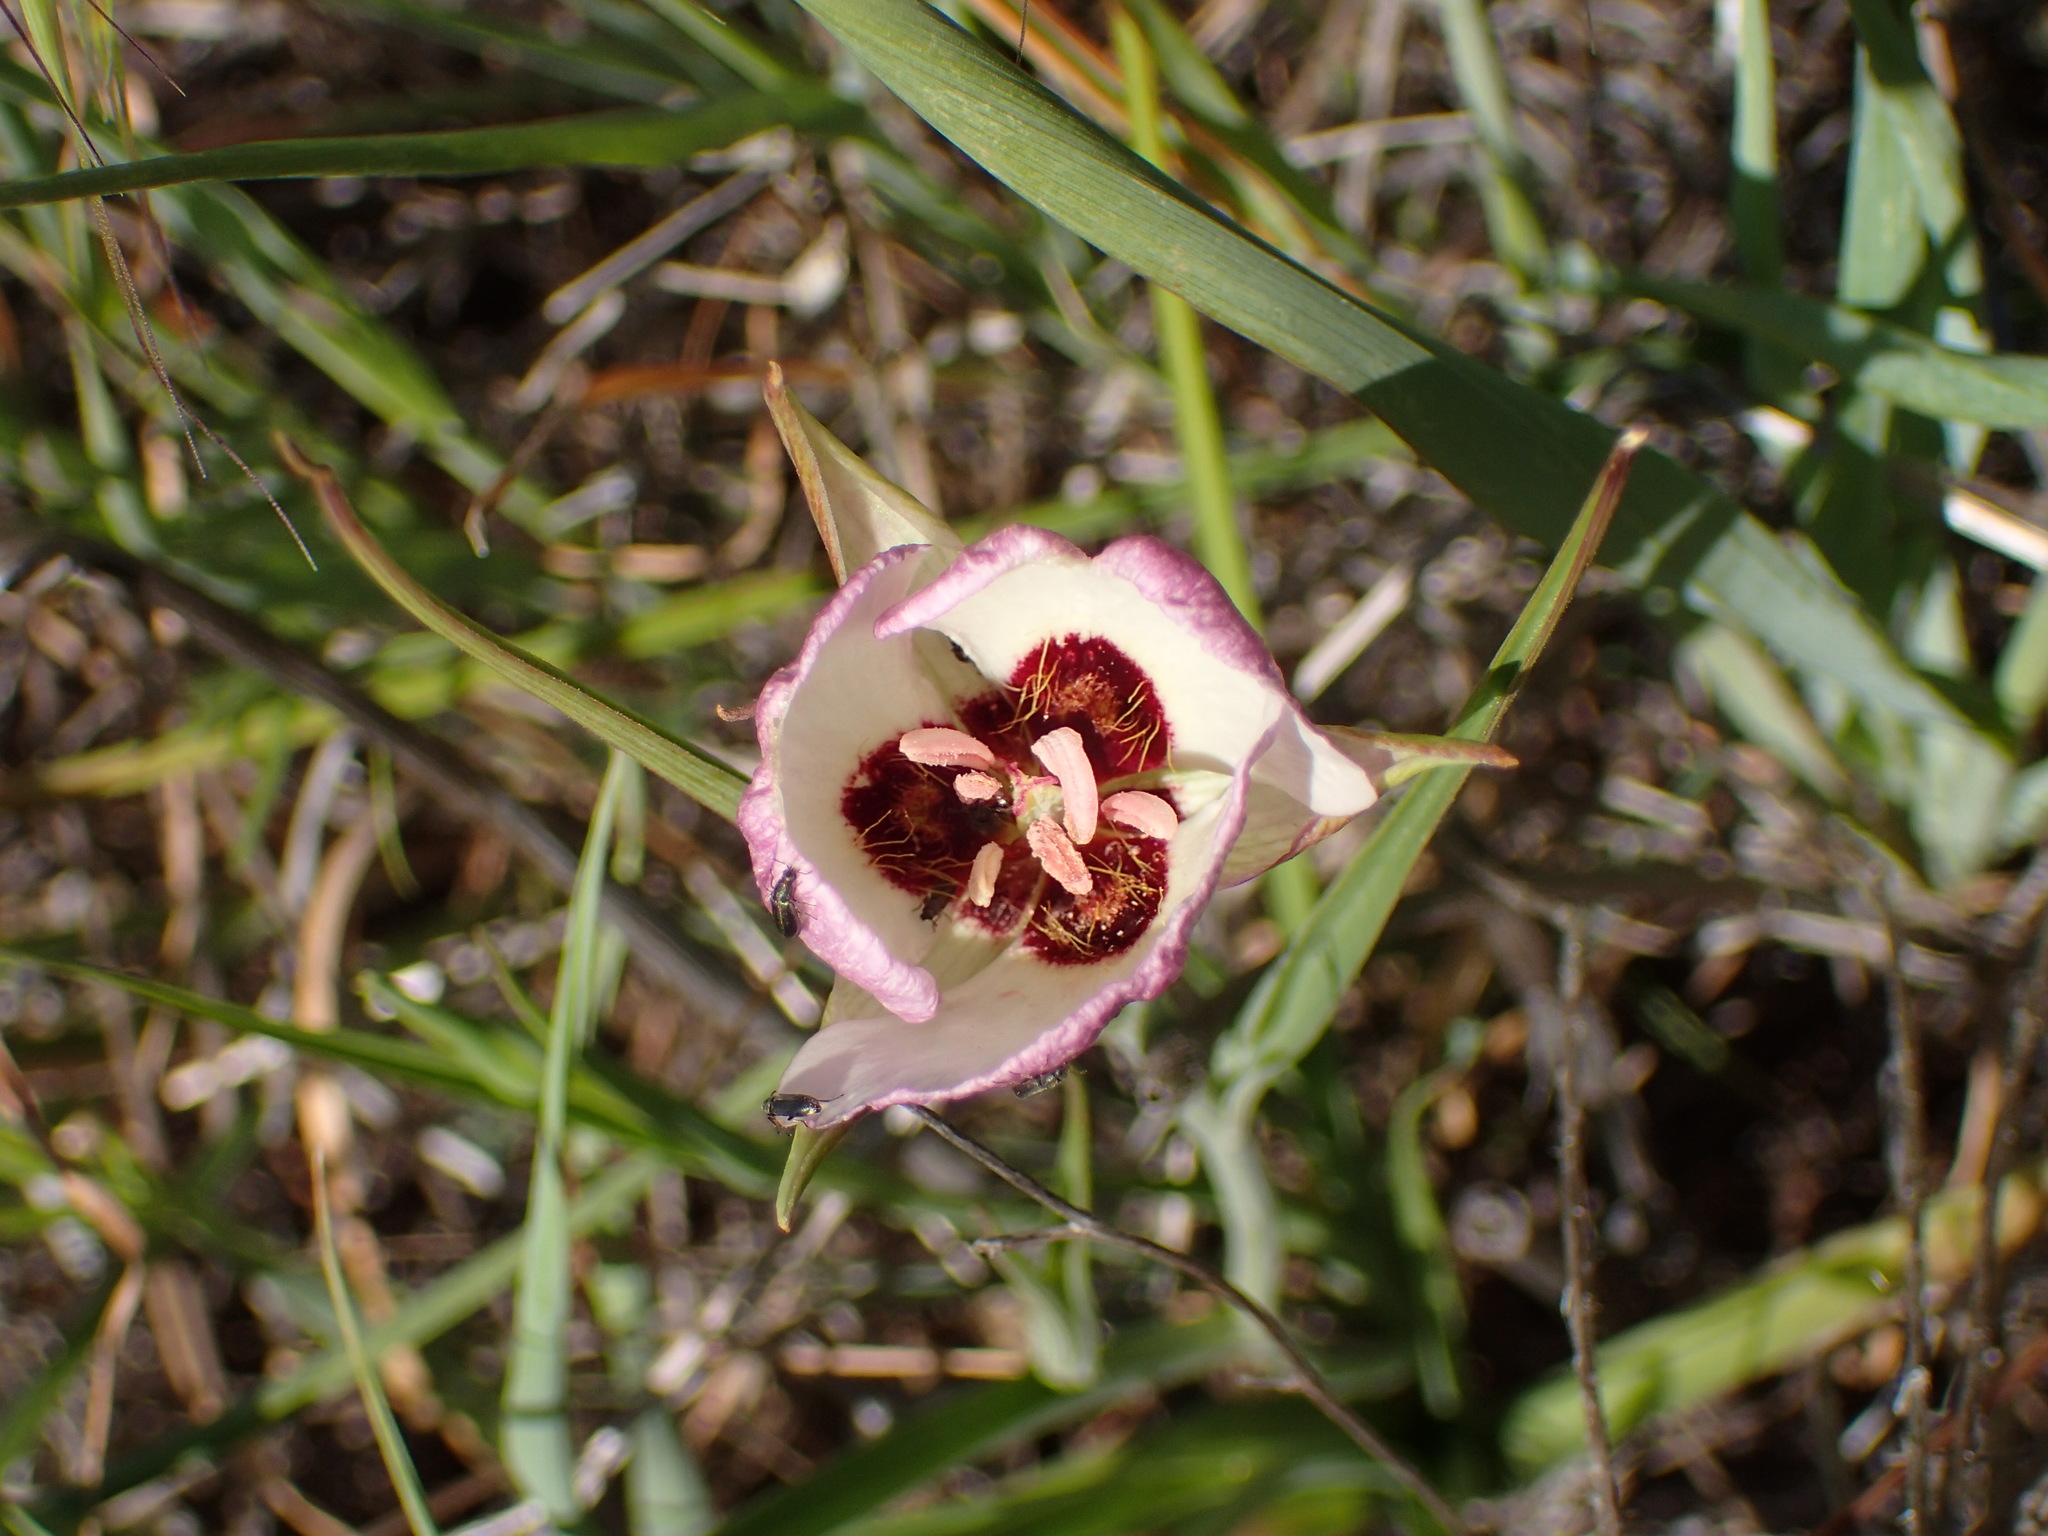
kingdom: Plantae
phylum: Tracheophyta
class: Liliopsida
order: Liliales
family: Liliaceae
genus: Calochortus
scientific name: Calochortus catalinae
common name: Catalina mariposa-lily
